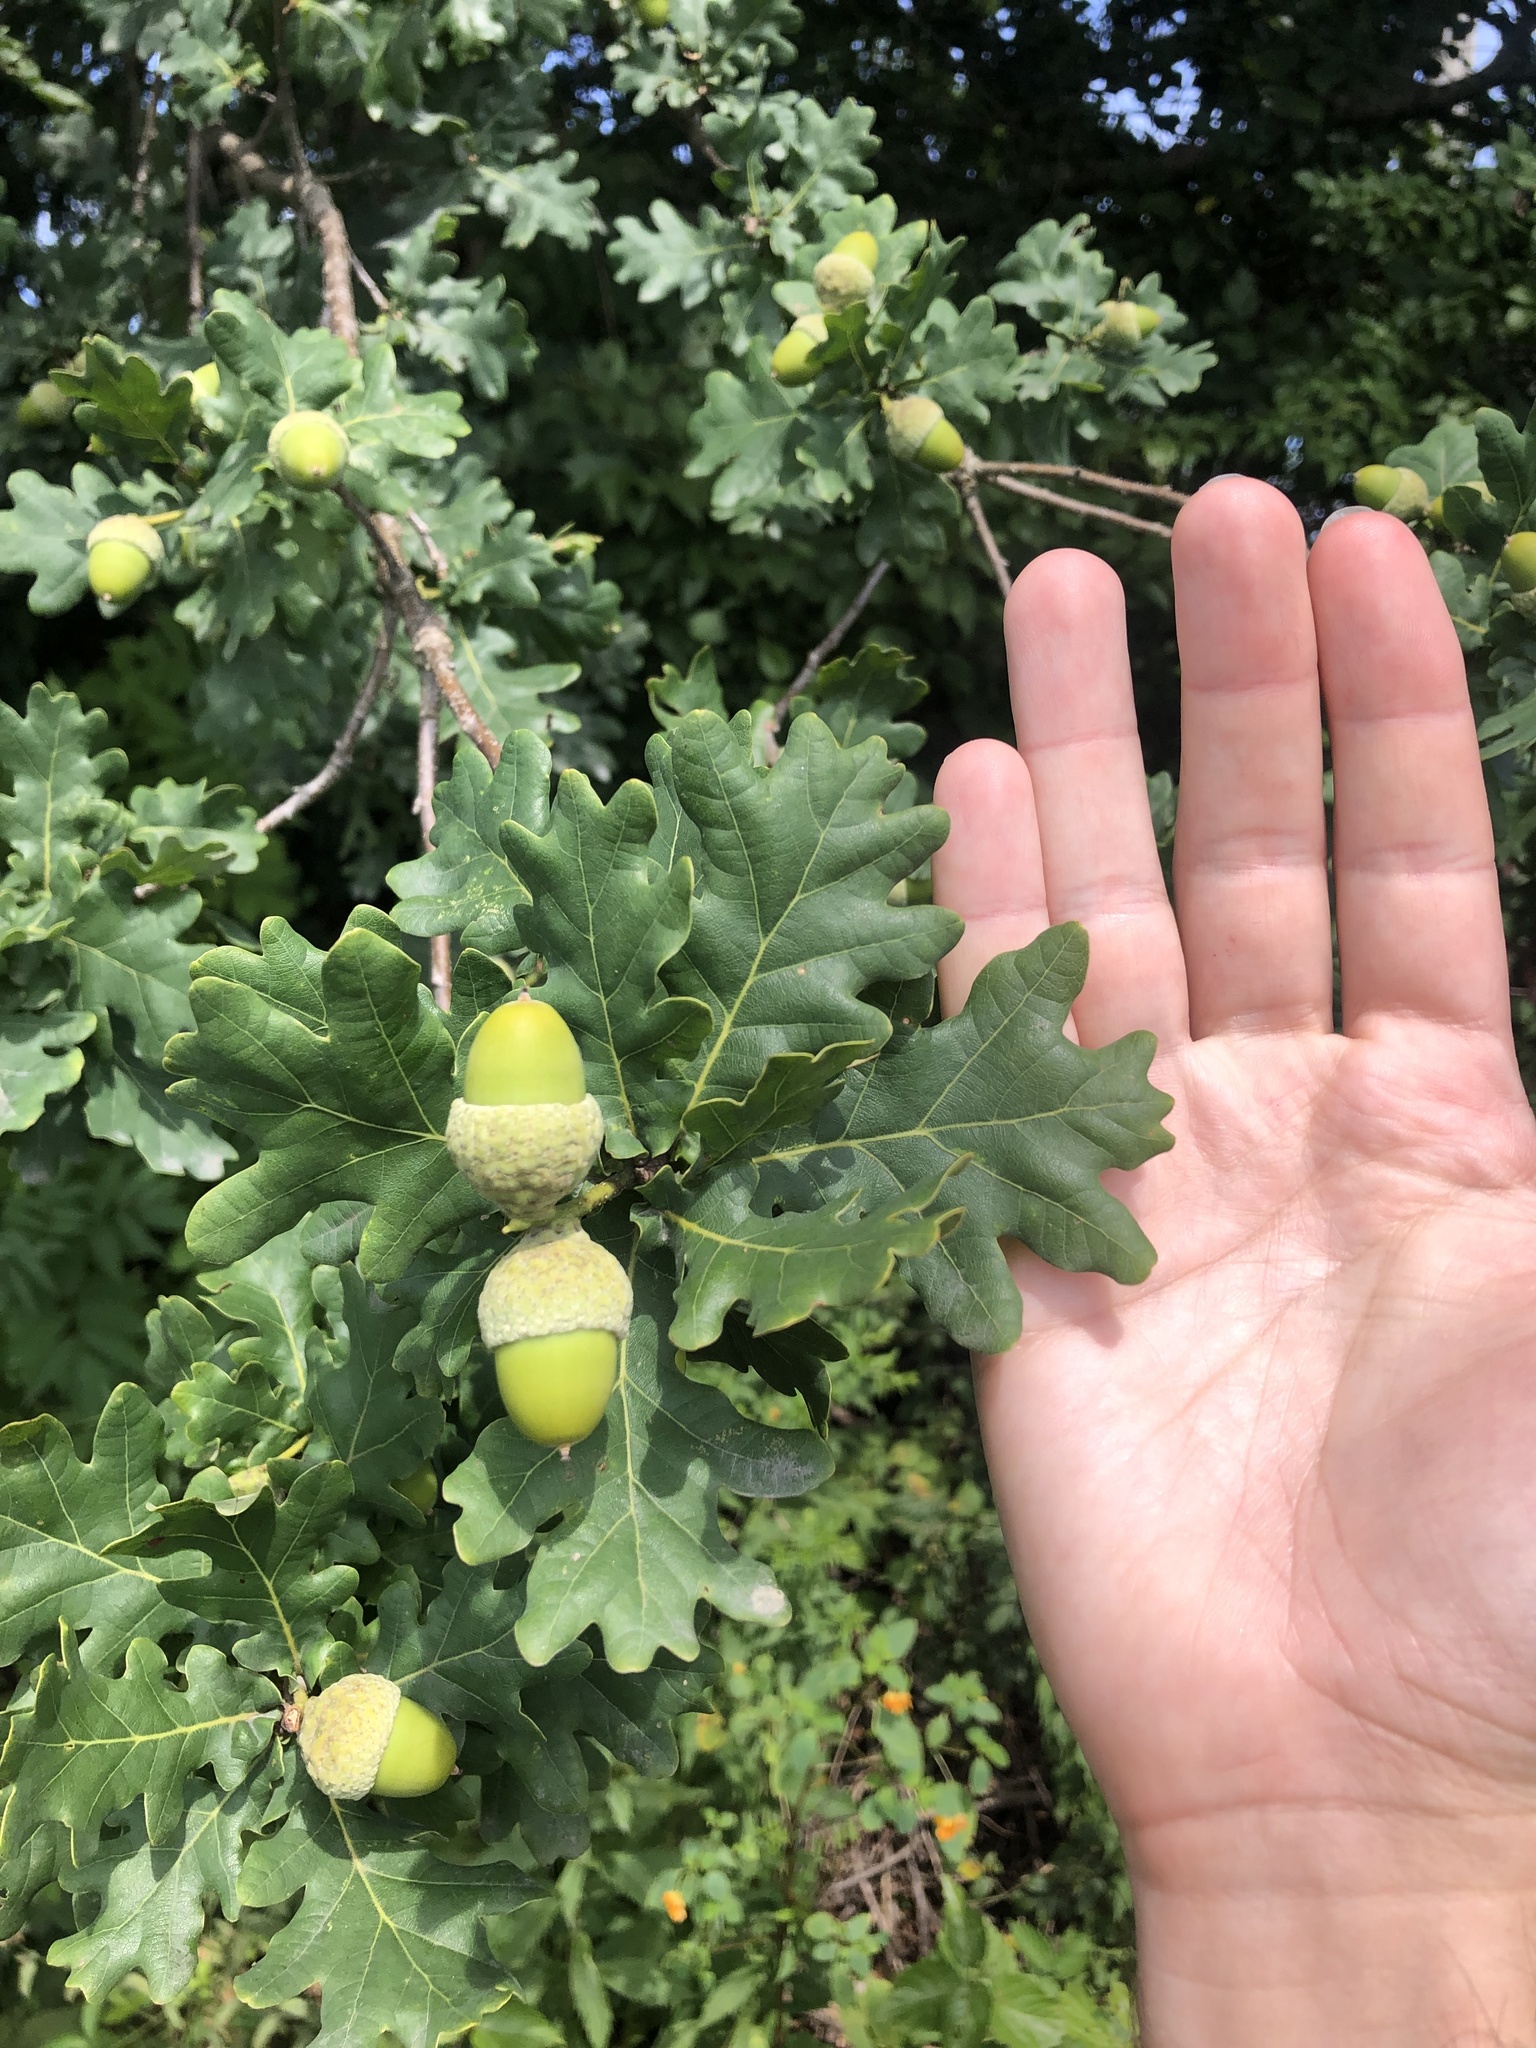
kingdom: Plantae
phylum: Tracheophyta
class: Magnoliopsida
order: Fagales
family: Fagaceae
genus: Quercus
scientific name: Quercus robur
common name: Pedunculate oak
